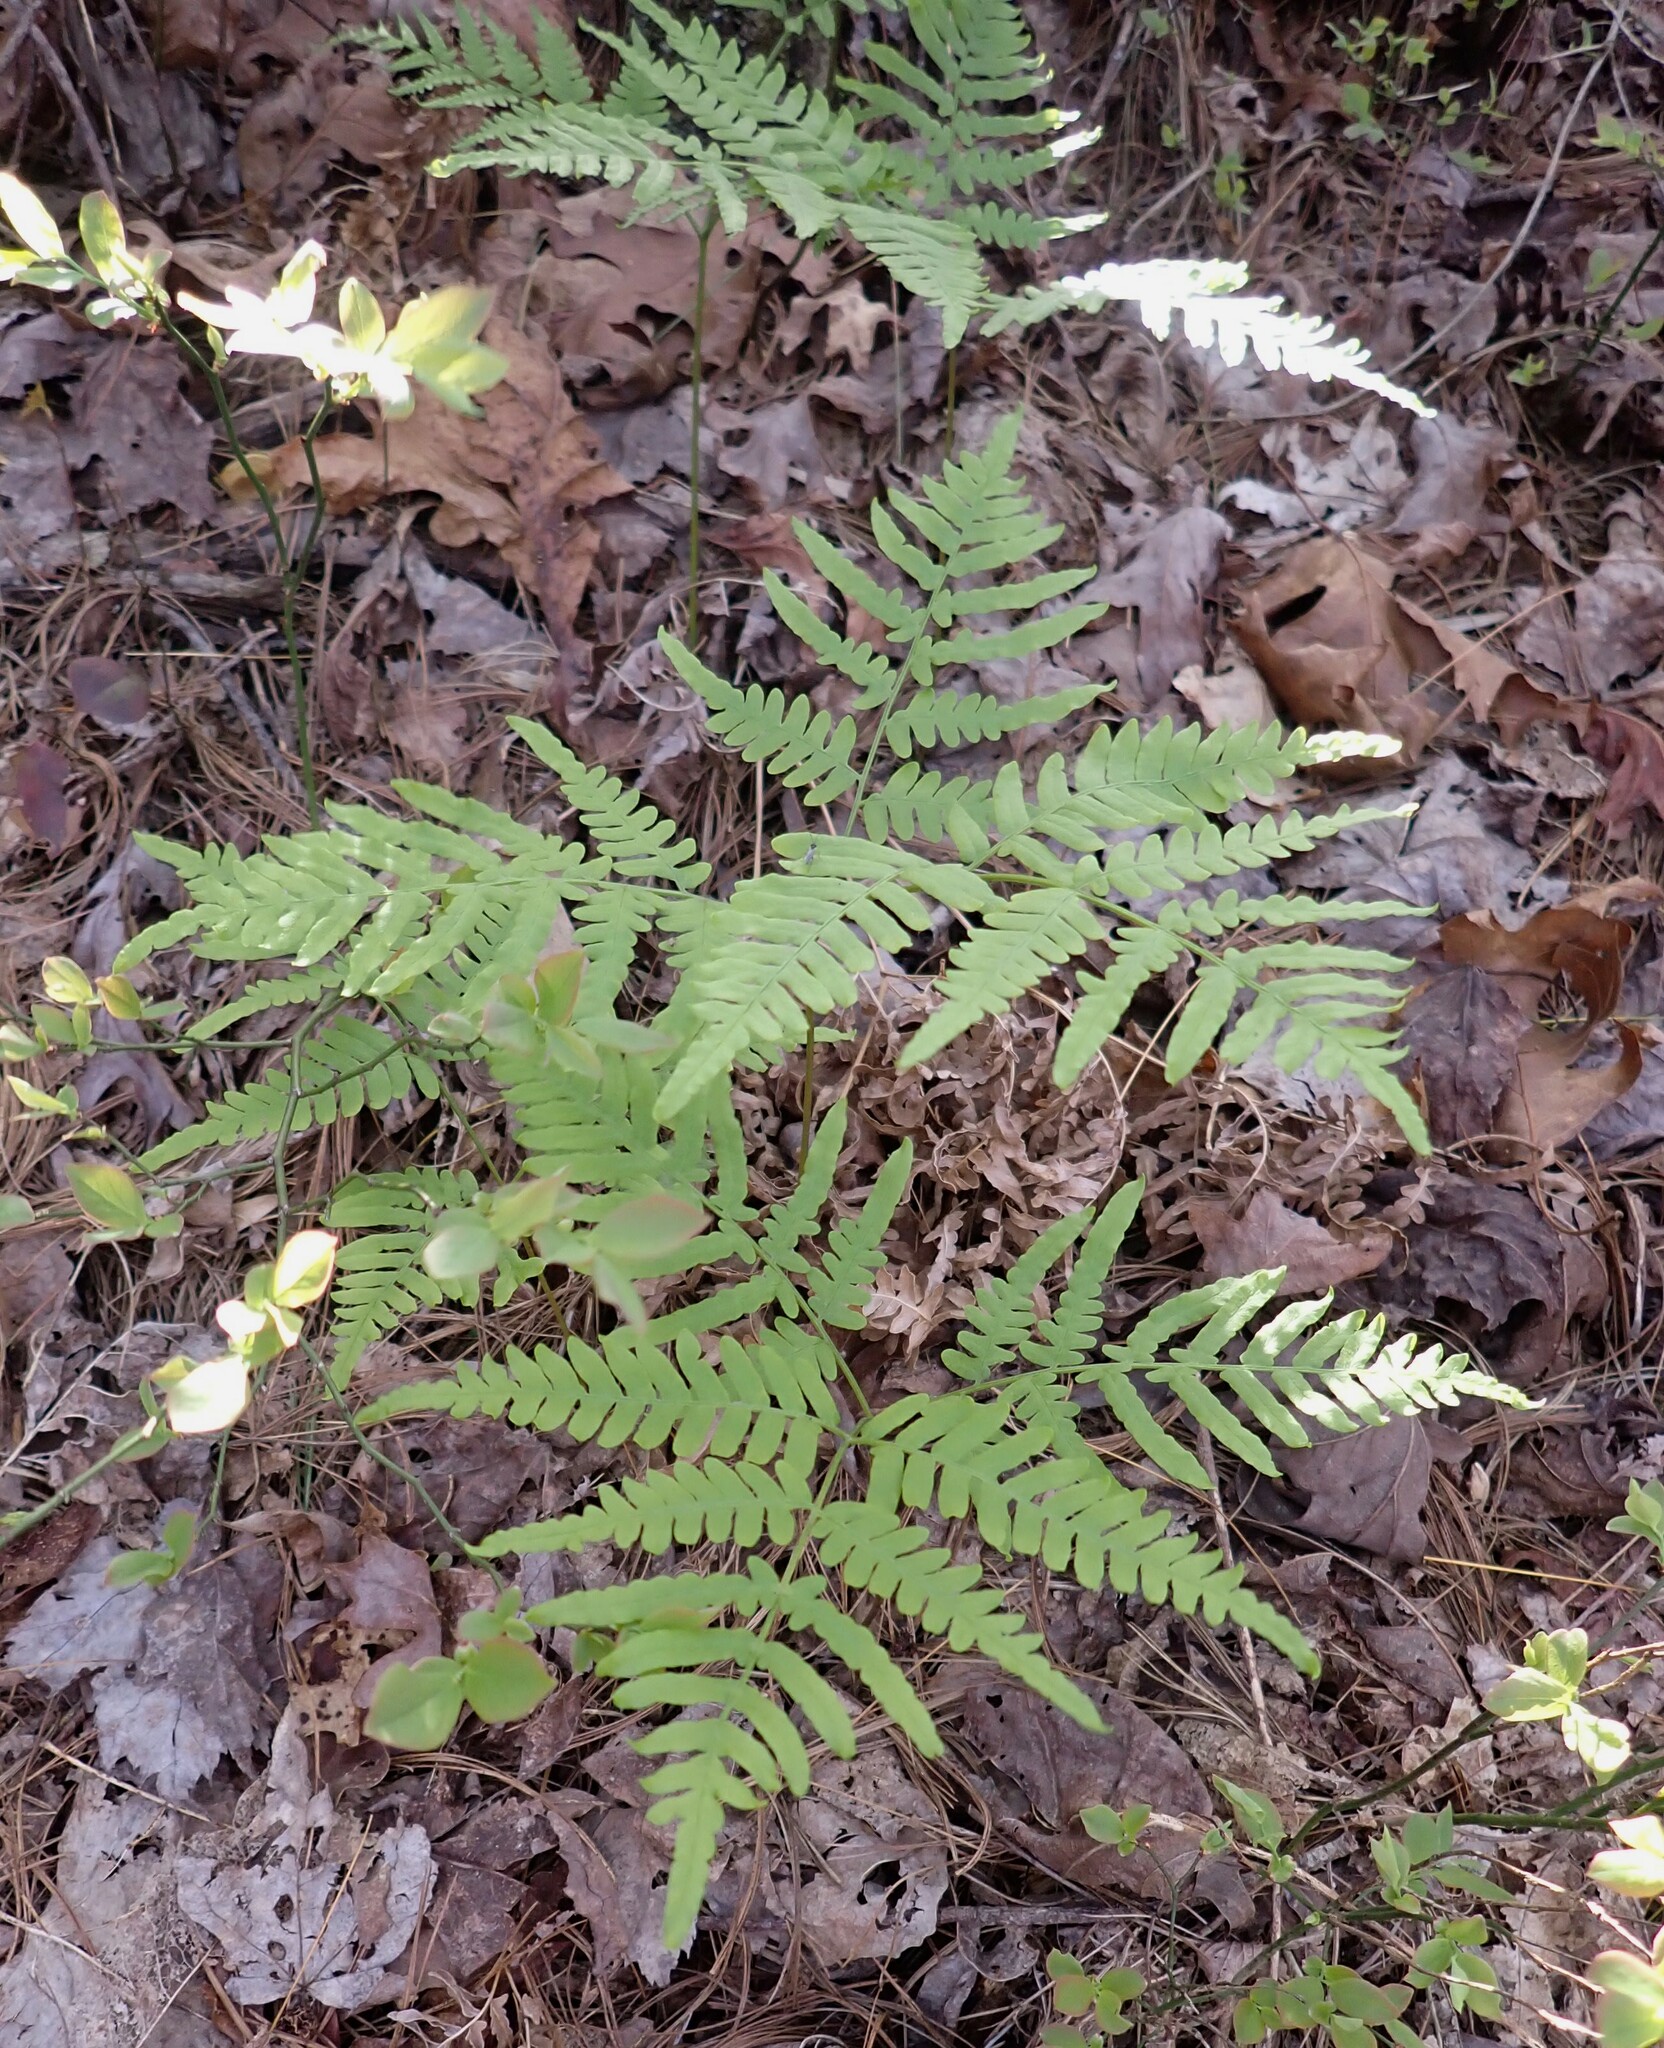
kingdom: Plantae
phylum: Tracheophyta
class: Polypodiopsida
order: Polypodiales
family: Dennstaedtiaceae
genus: Pteridium
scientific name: Pteridium
